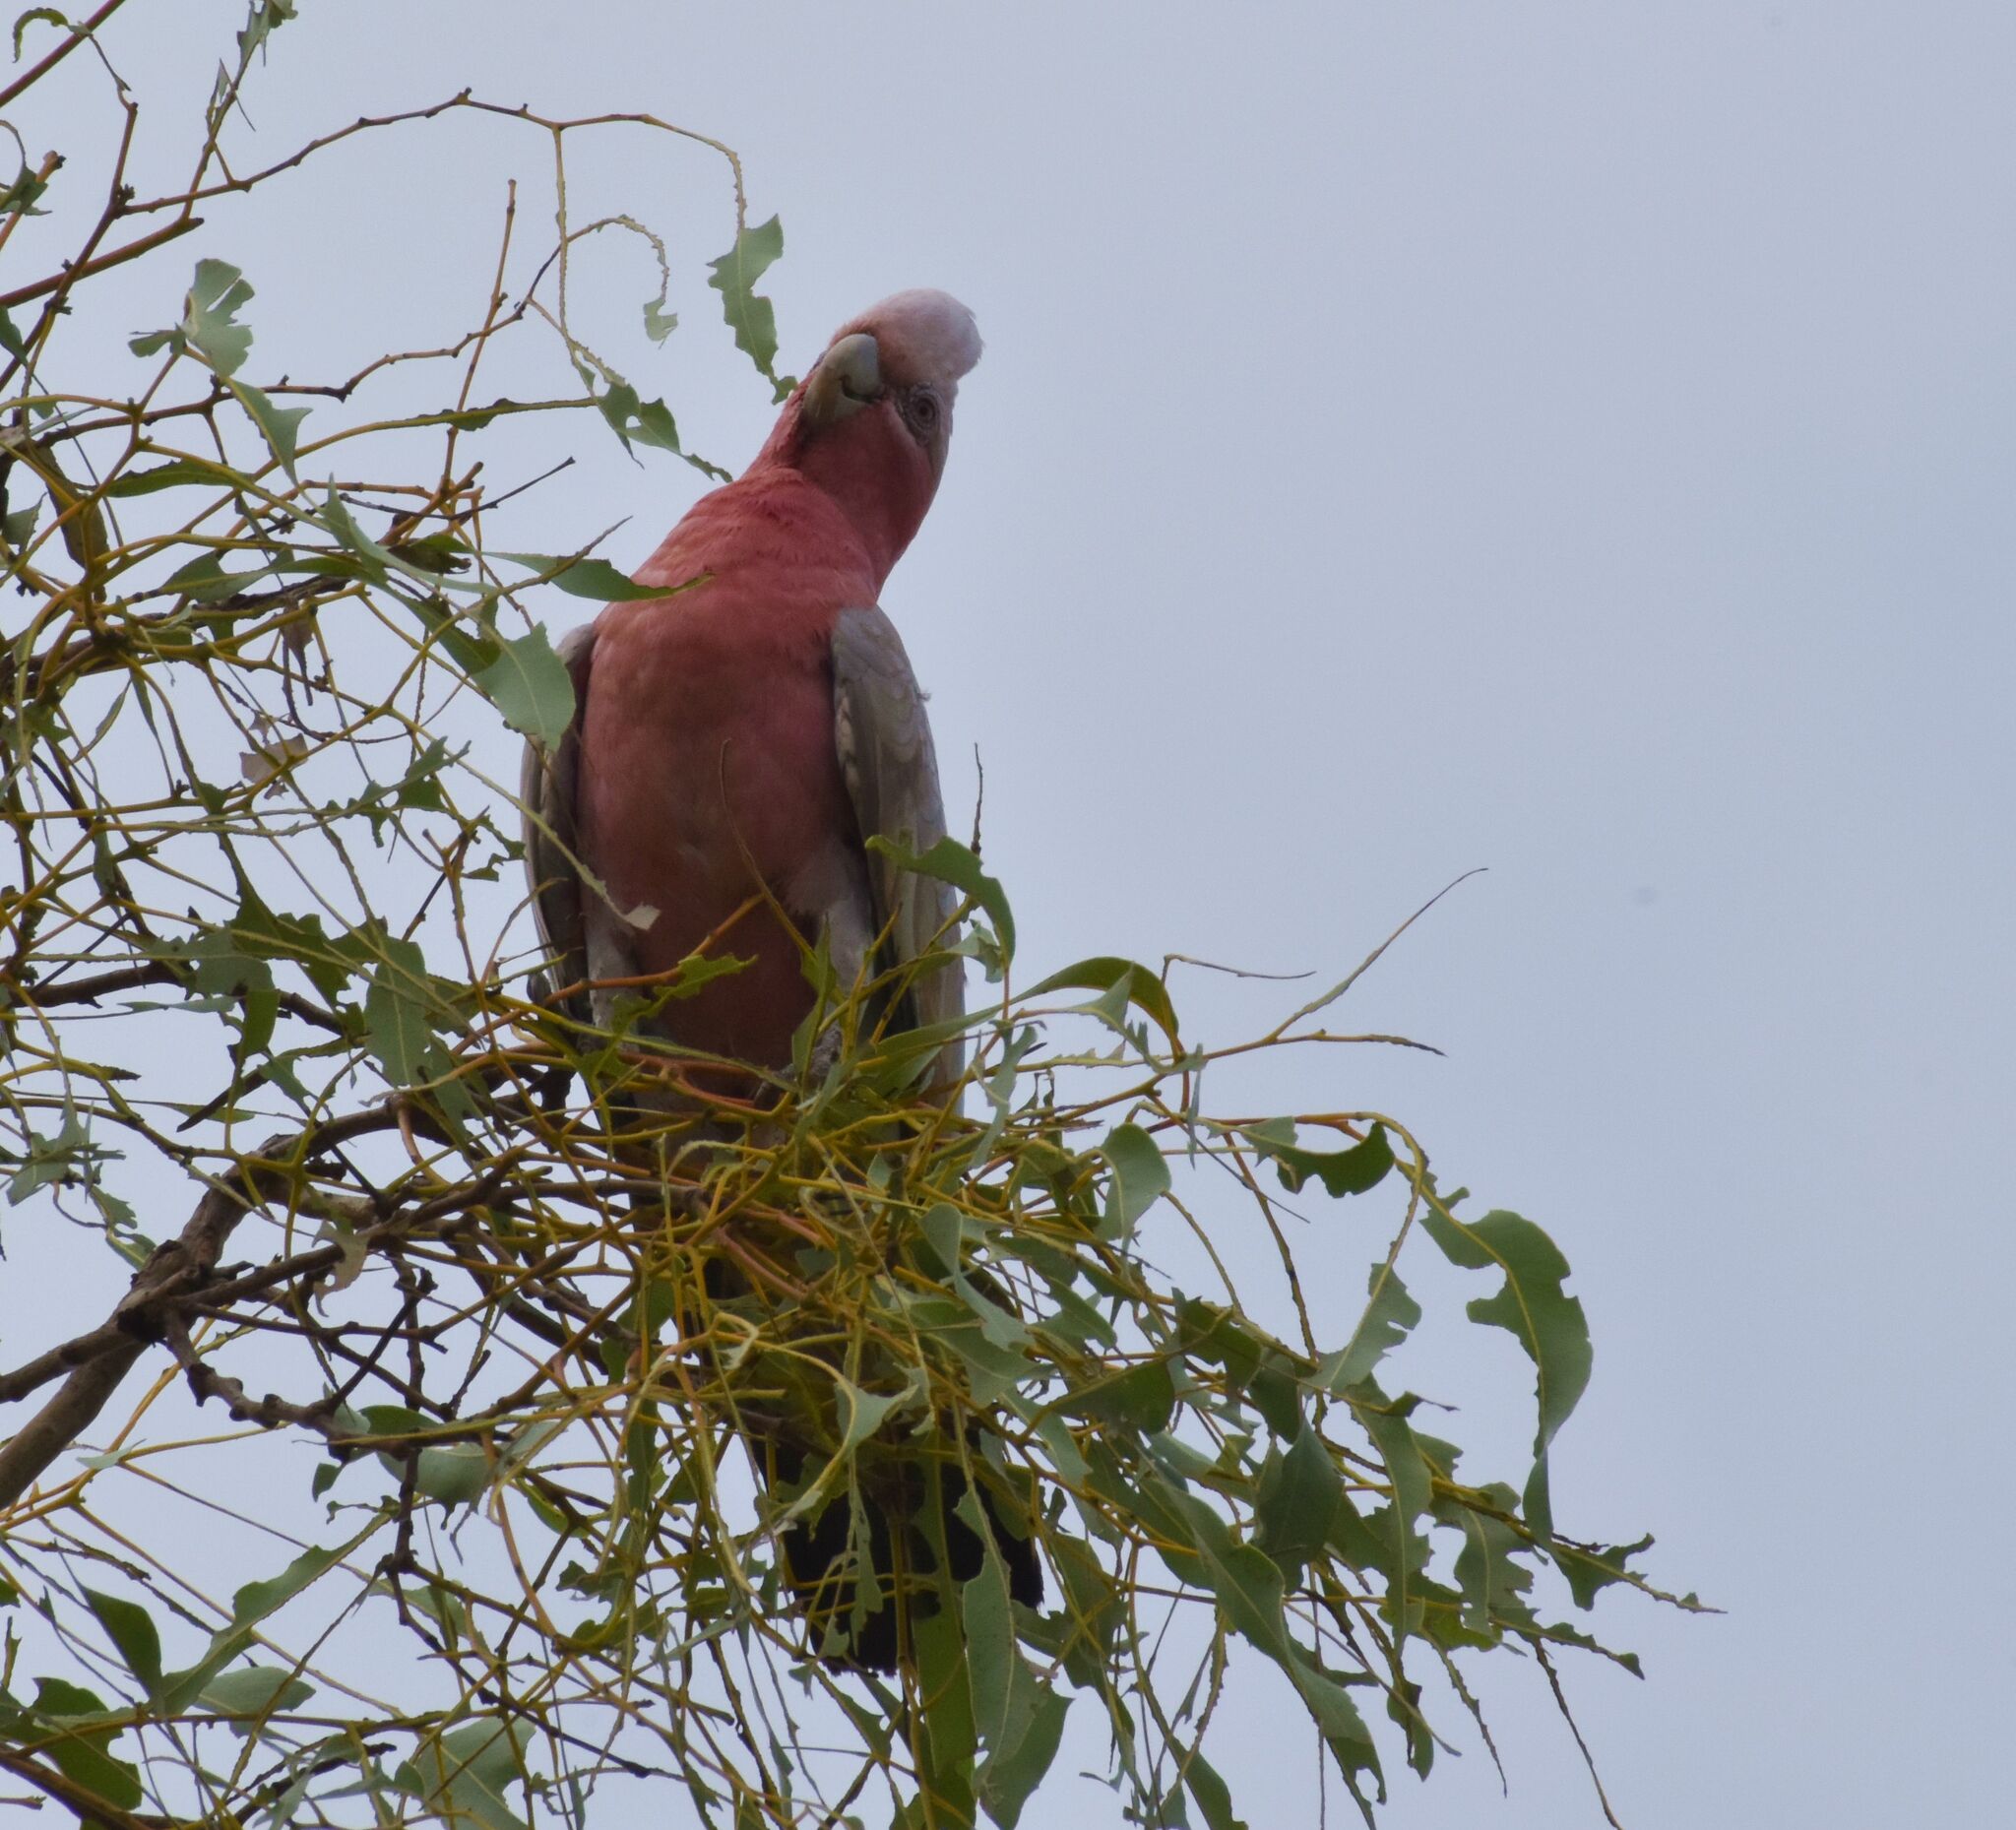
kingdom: Animalia
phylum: Chordata
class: Aves
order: Psittaciformes
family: Psittacidae
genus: Eolophus
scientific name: Eolophus roseicapilla
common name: Galah
